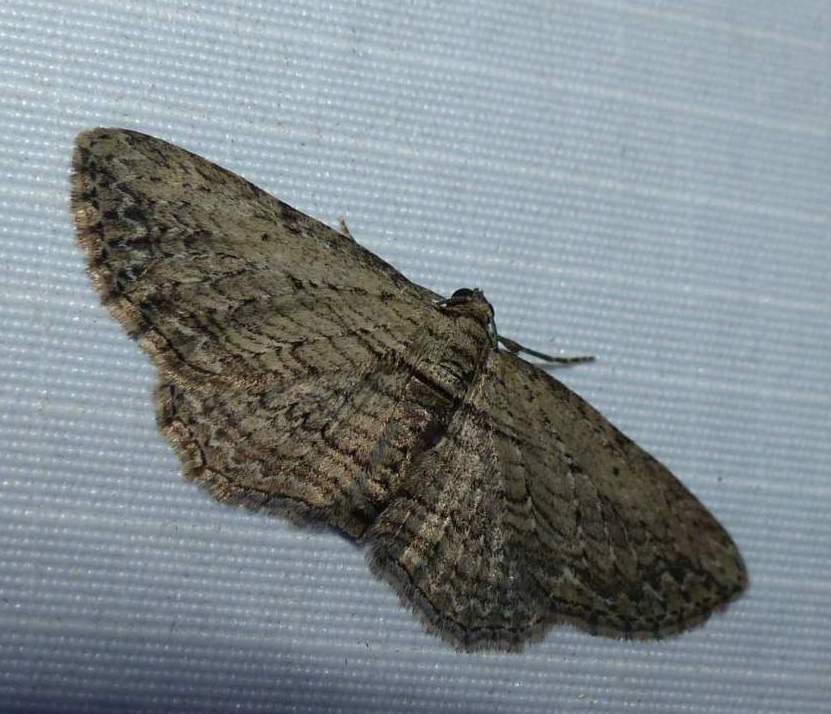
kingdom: Animalia
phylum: Arthropoda
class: Insecta
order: Lepidoptera
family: Geometridae
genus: Horisme
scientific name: Horisme intestinata
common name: Brown bark carpet
